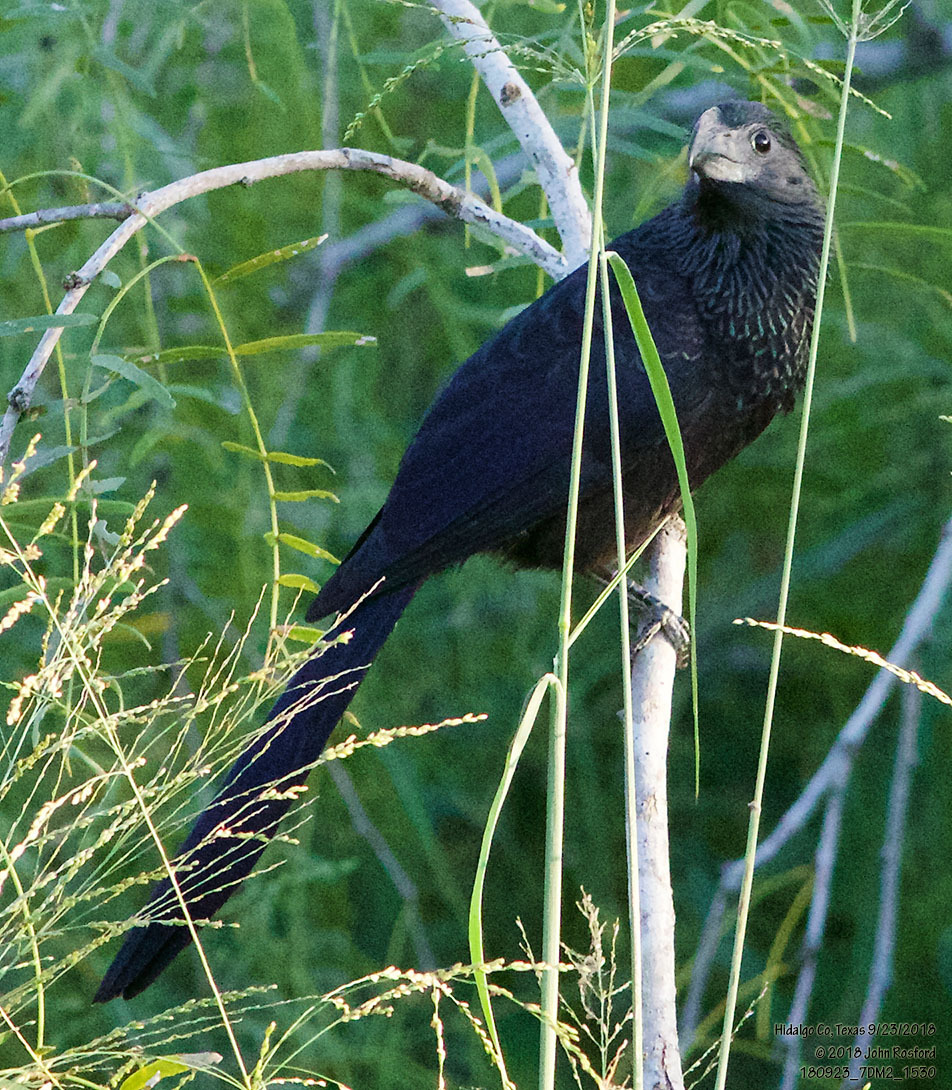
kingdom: Animalia
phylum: Chordata
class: Aves
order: Cuculiformes
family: Cuculidae
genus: Crotophaga
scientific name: Crotophaga sulcirostris
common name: Groove-billed ani
